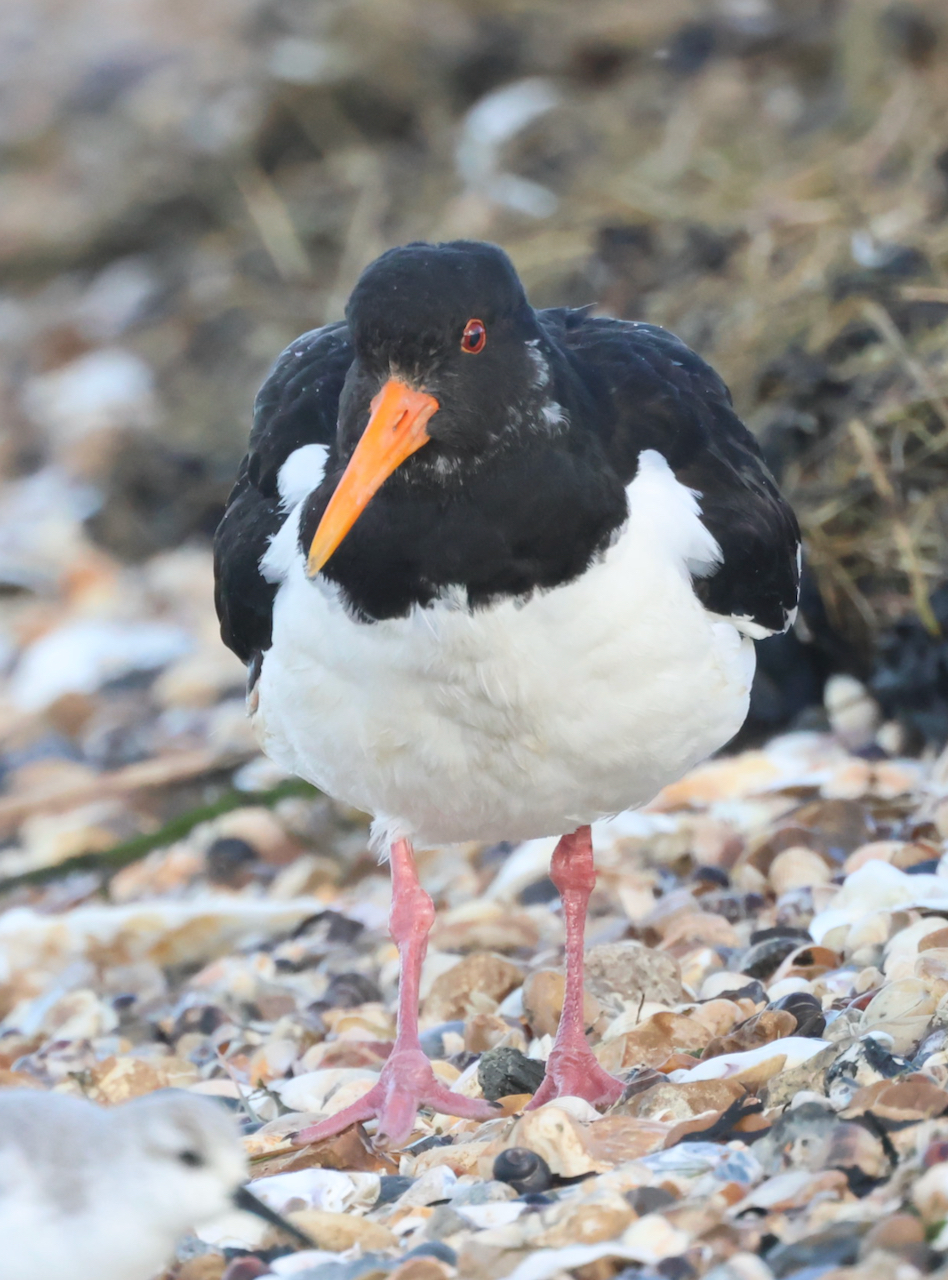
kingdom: Animalia
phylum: Chordata
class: Aves
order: Charadriiformes
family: Haematopodidae
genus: Haematopus
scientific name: Haematopus ostralegus
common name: Eurasian oystercatcher
